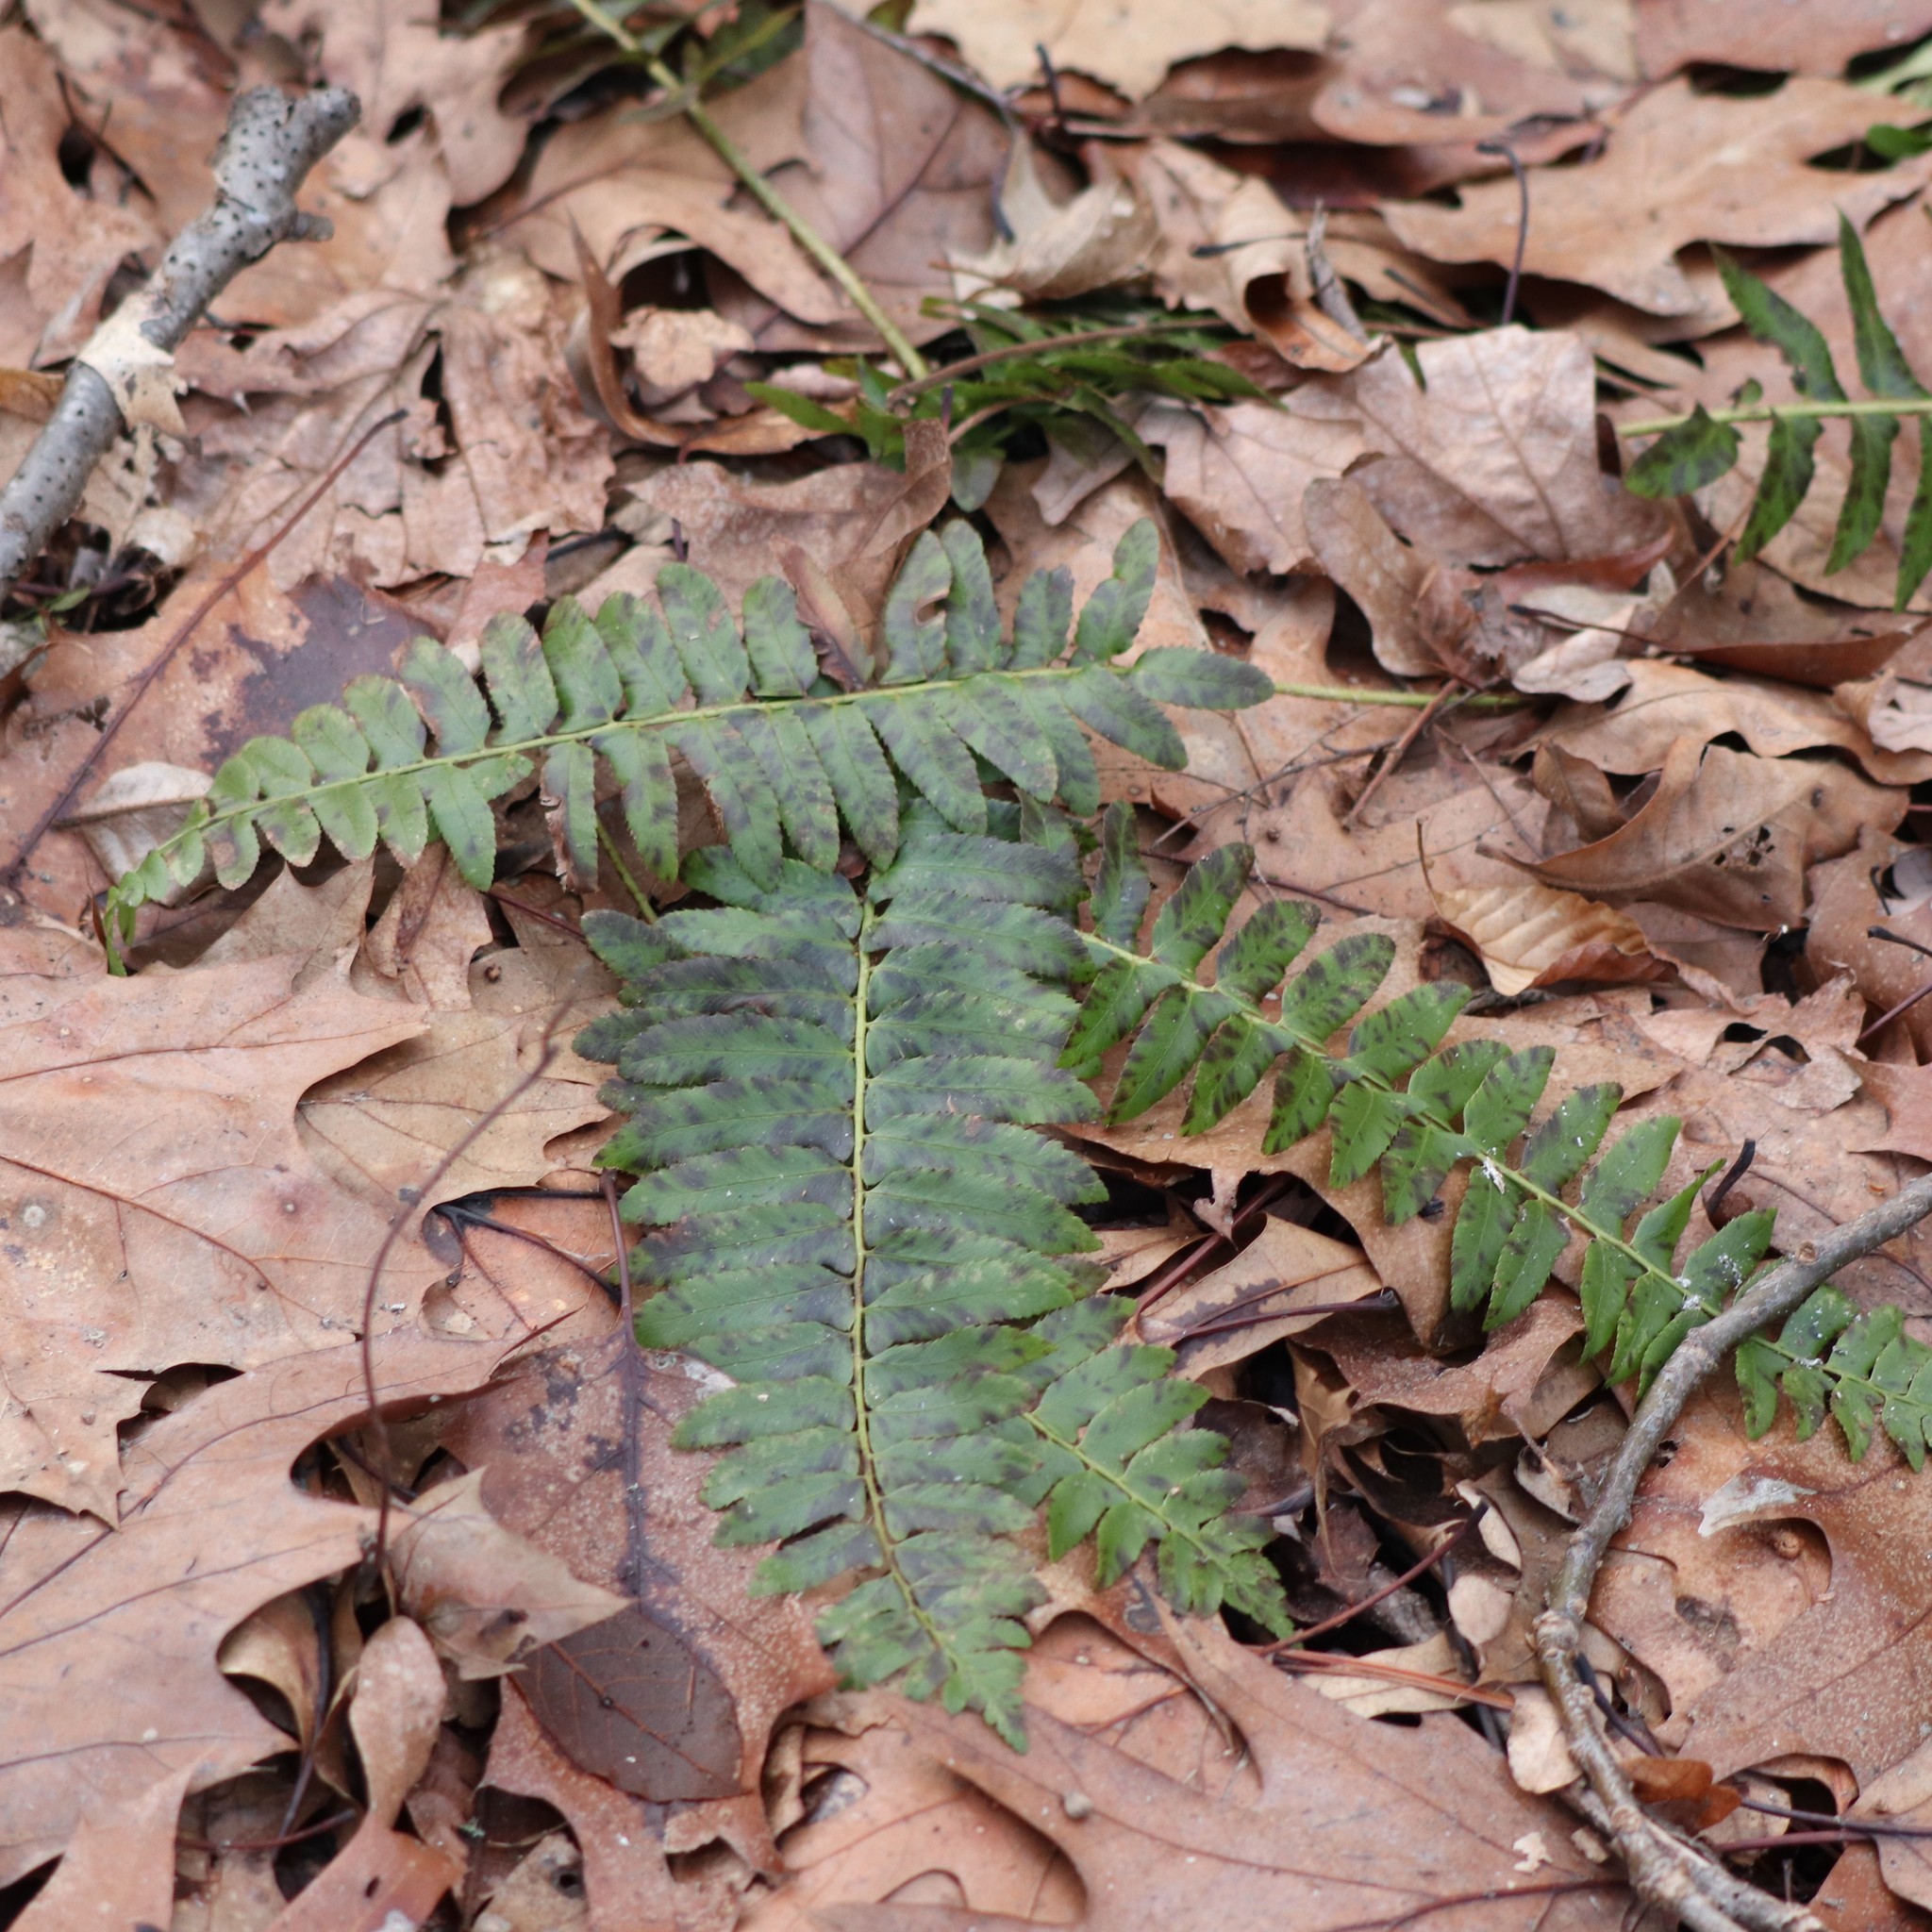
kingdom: Plantae
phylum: Tracheophyta
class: Polypodiopsida
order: Polypodiales
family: Dryopteridaceae
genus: Polystichum
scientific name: Polystichum acrostichoides
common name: Christmas fern
